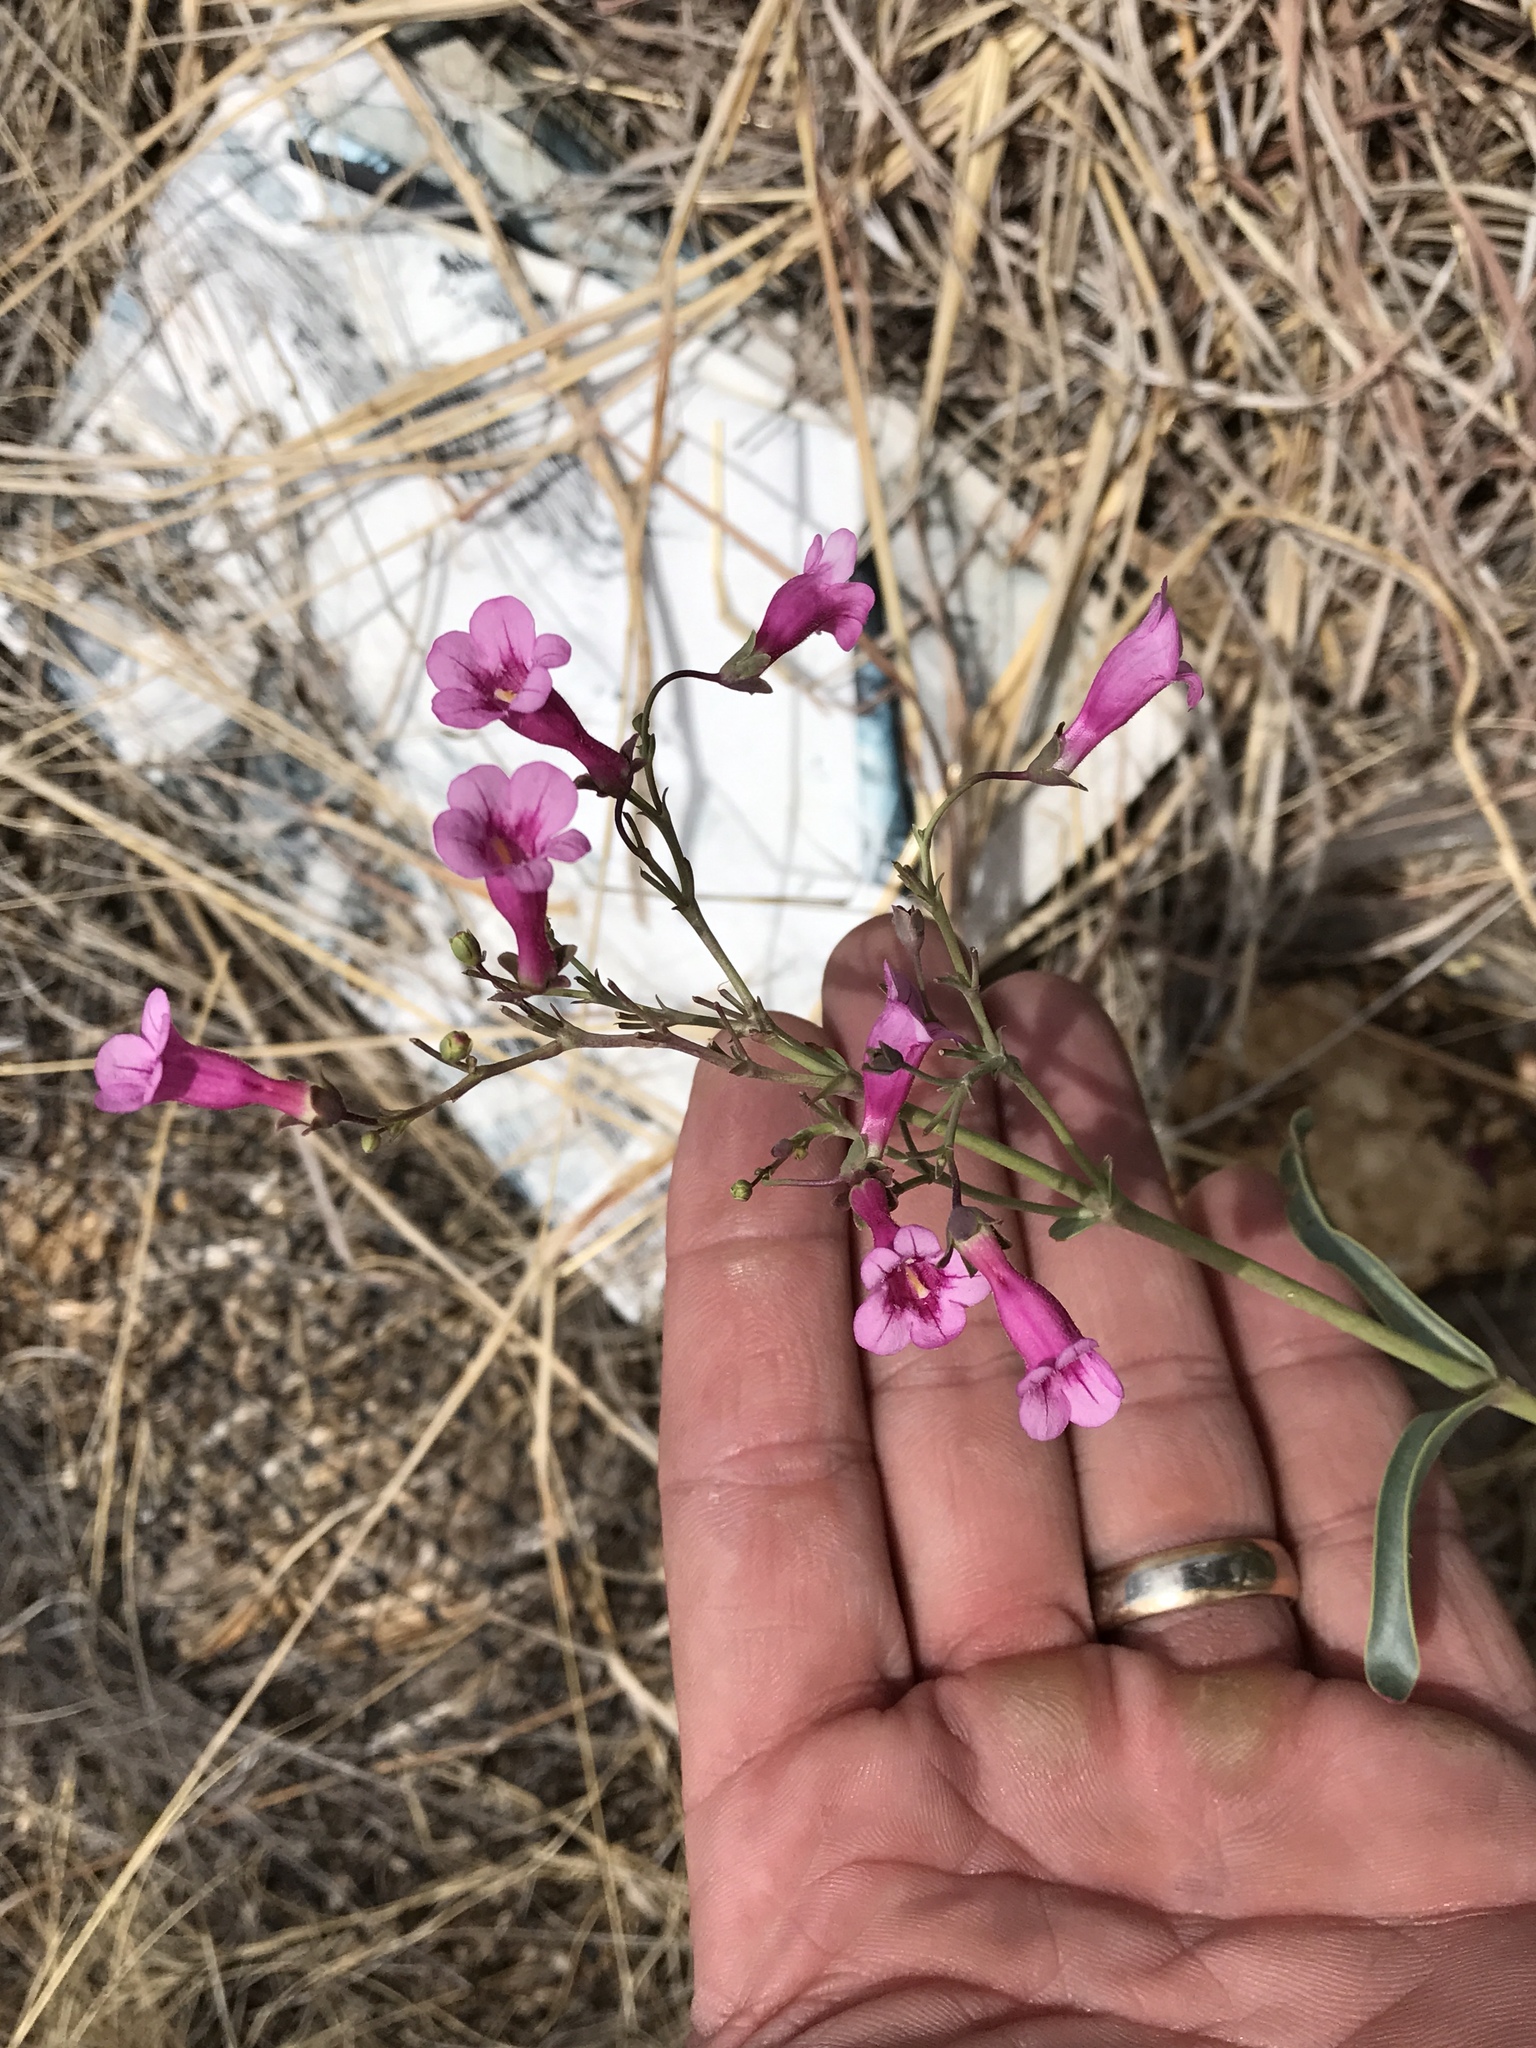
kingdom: Plantae
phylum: Tracheophyta
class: Magnoliopsida
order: Lamiales
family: Plantaginaceae
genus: Penstemon
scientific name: Penstemon parryi
